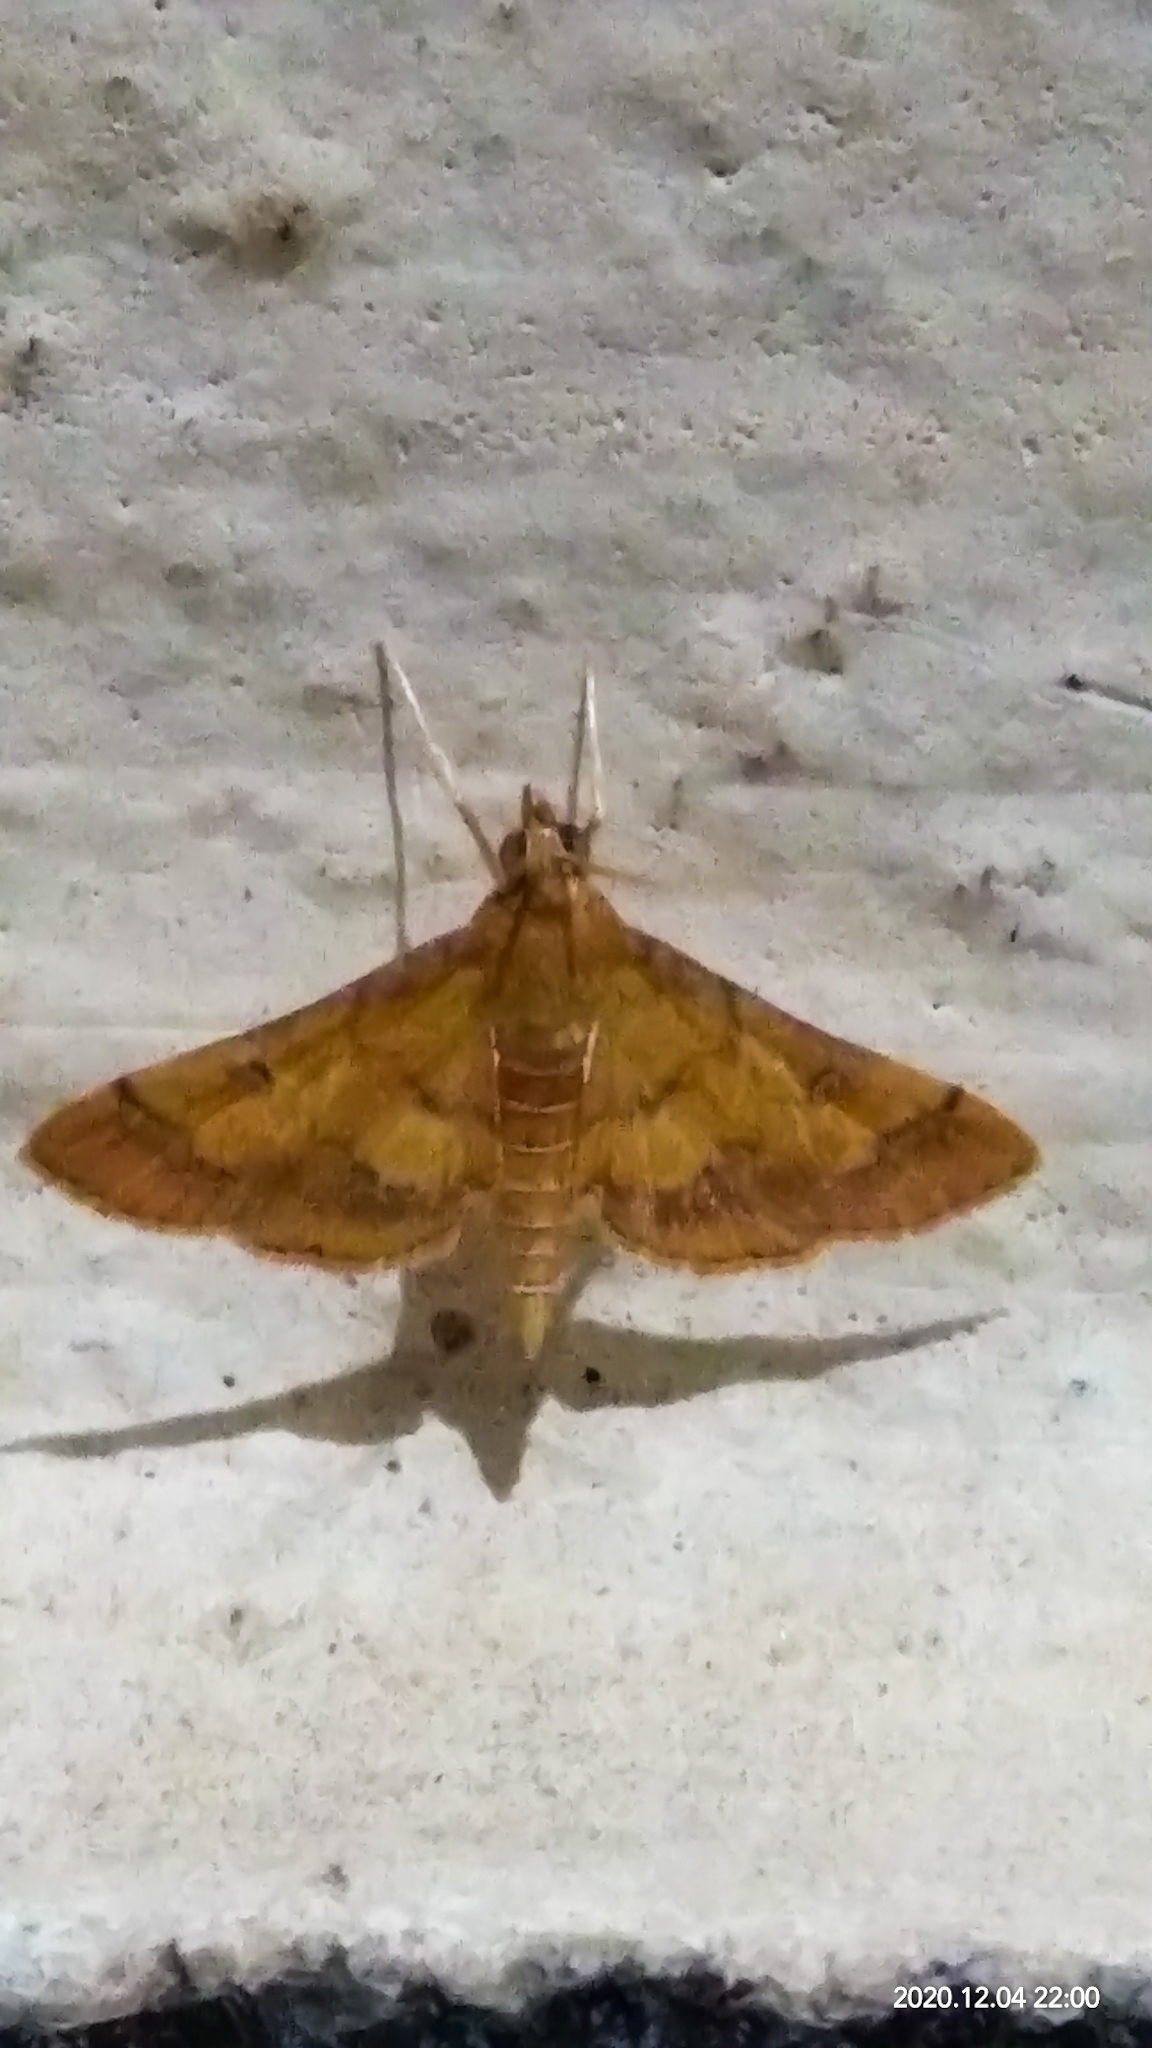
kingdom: Animalia
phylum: Arthropoda
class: Insecta
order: Lepidoptera
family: Crambidae
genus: Ischnurges
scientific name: Ischnurges luteomarginalis
